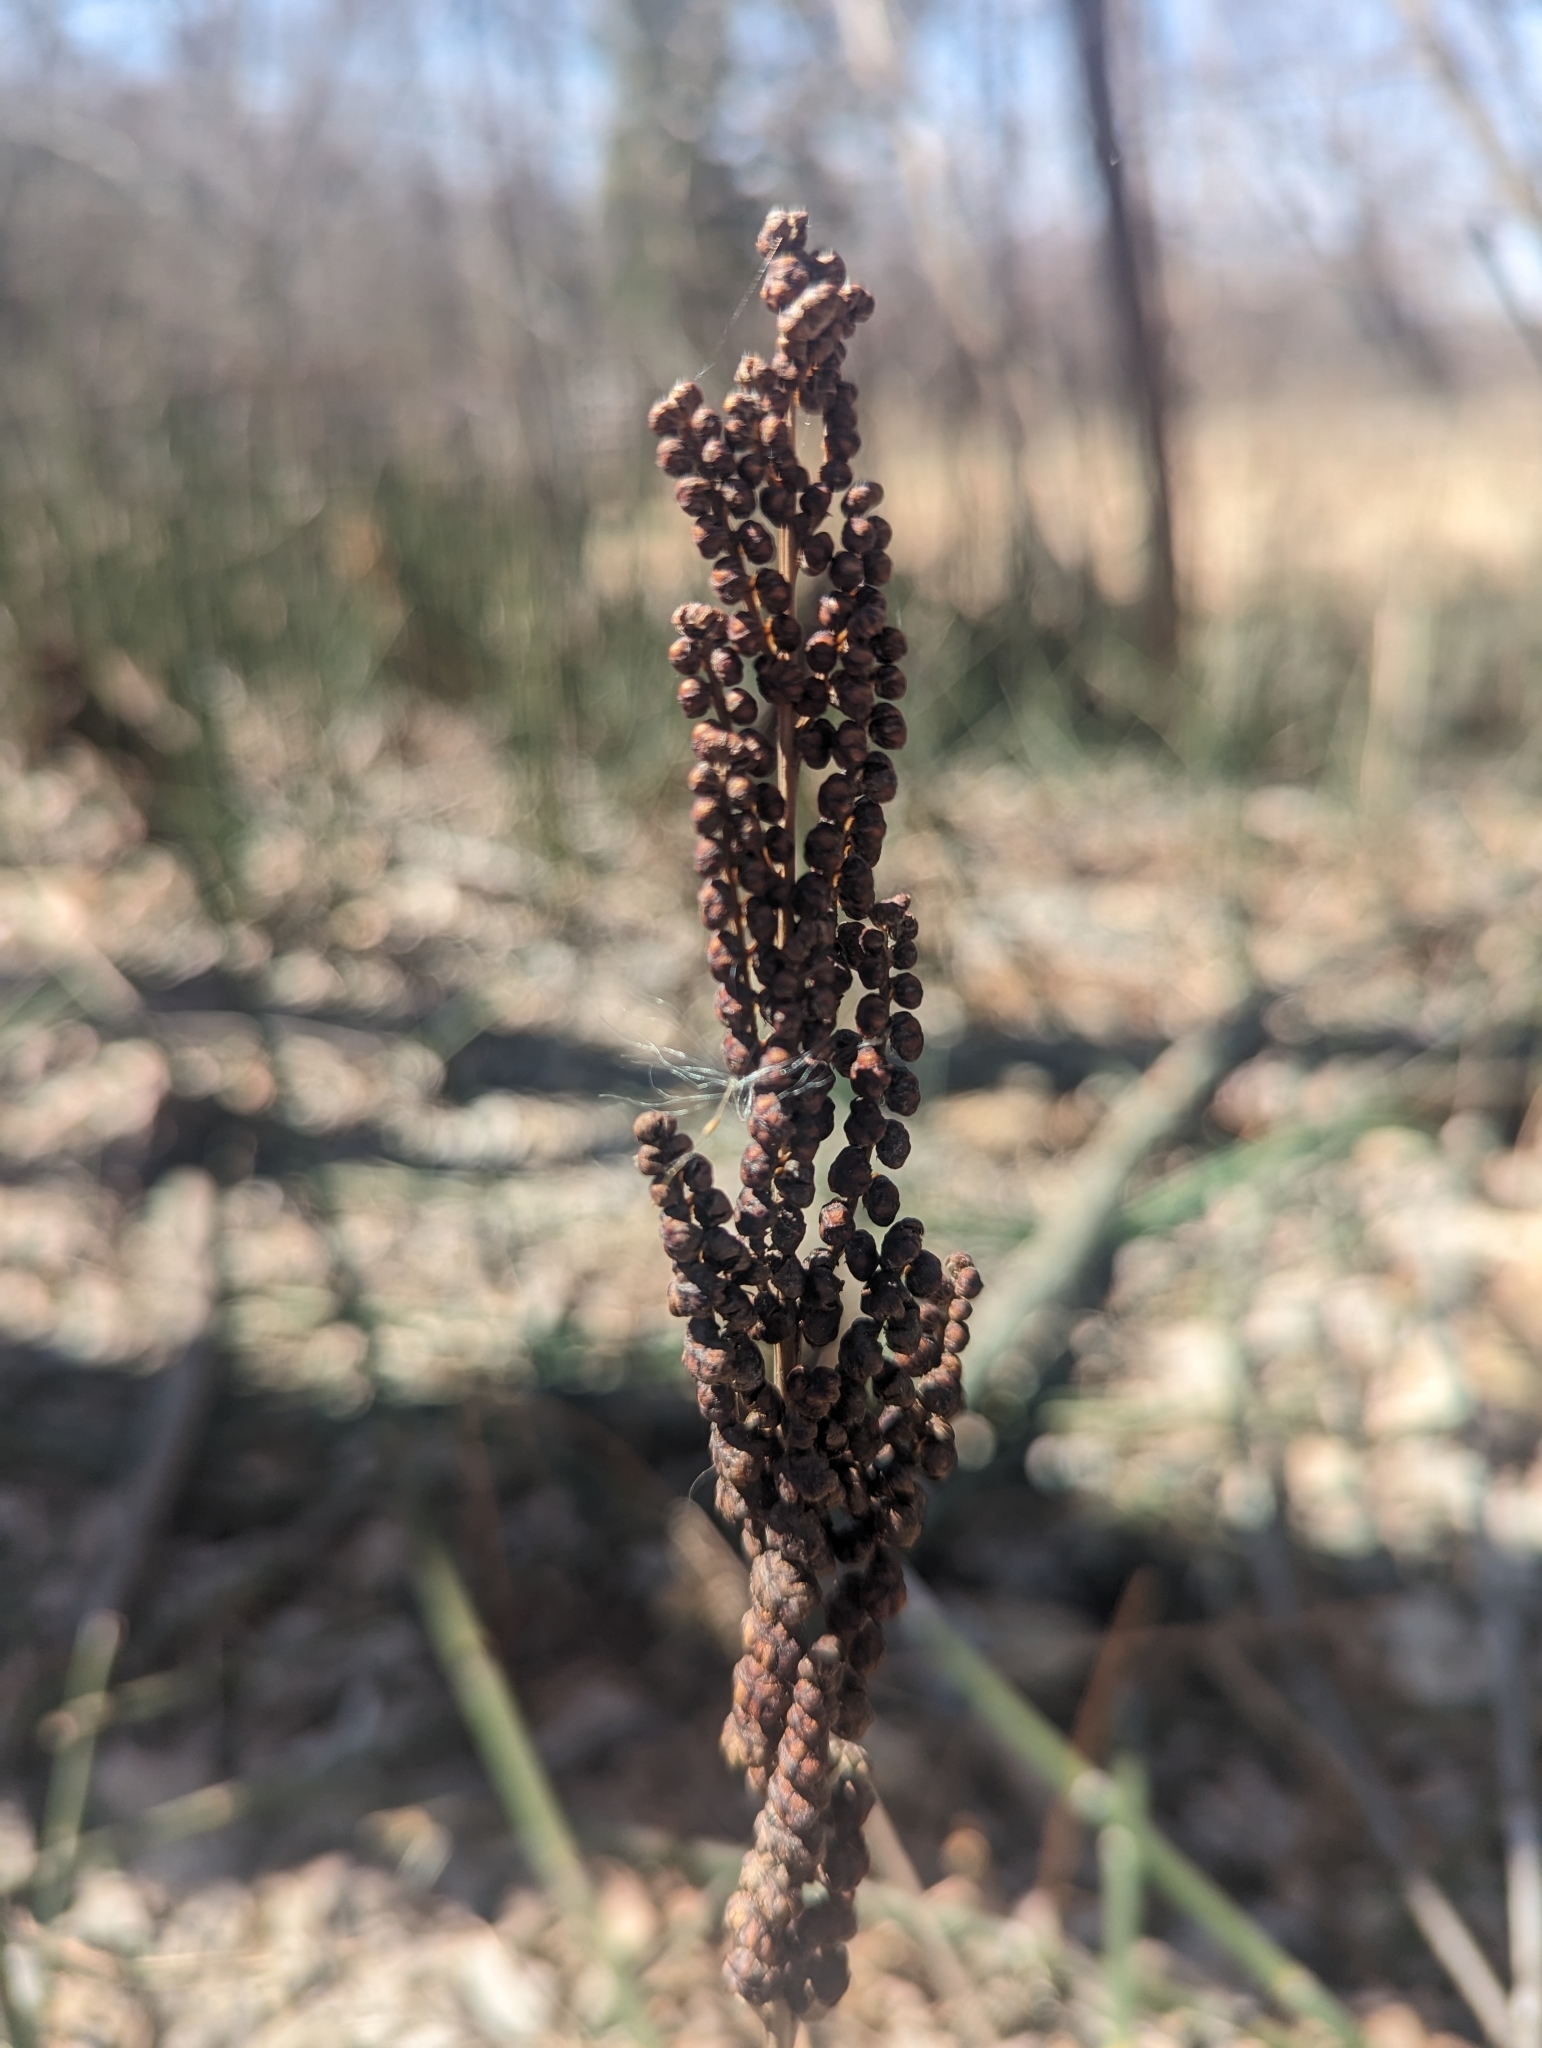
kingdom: Plantae
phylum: Tracheophyta
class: Polypodiopsida
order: Polypodiales
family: Onocleaceae
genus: Onoclea
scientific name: Onoclea sensibilis
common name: Sensitive fern
